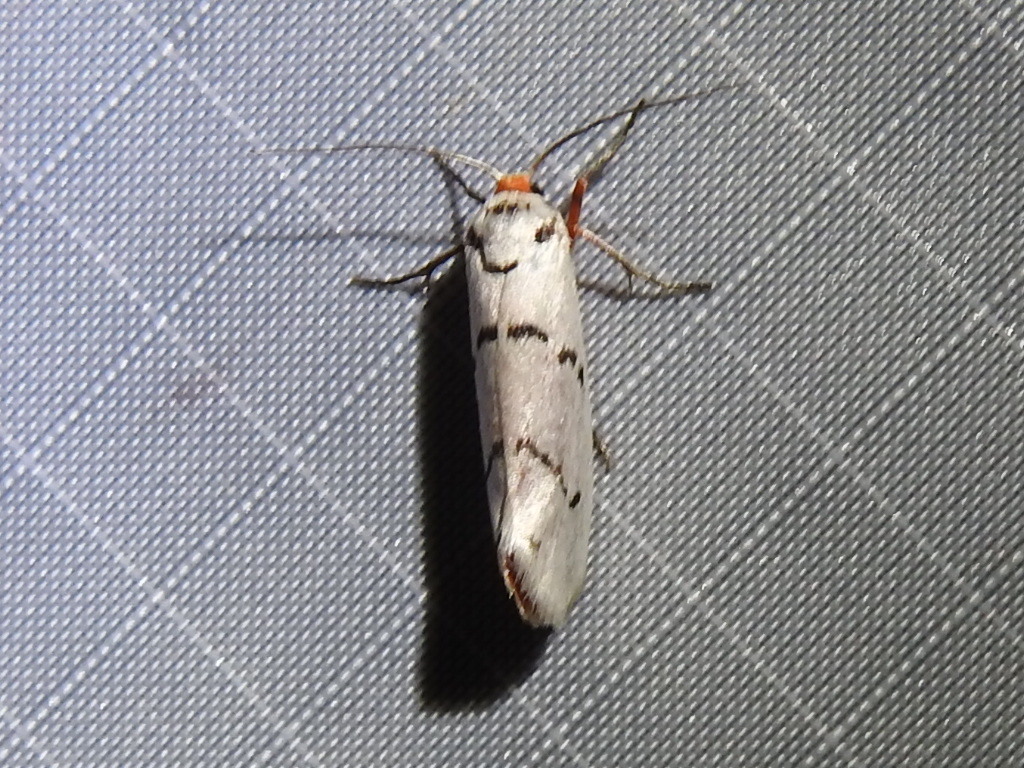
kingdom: Animalia
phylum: Arthropoda
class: Insecta
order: Lepidoptera
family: Lacturidae
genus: Lactura
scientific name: Lactura
